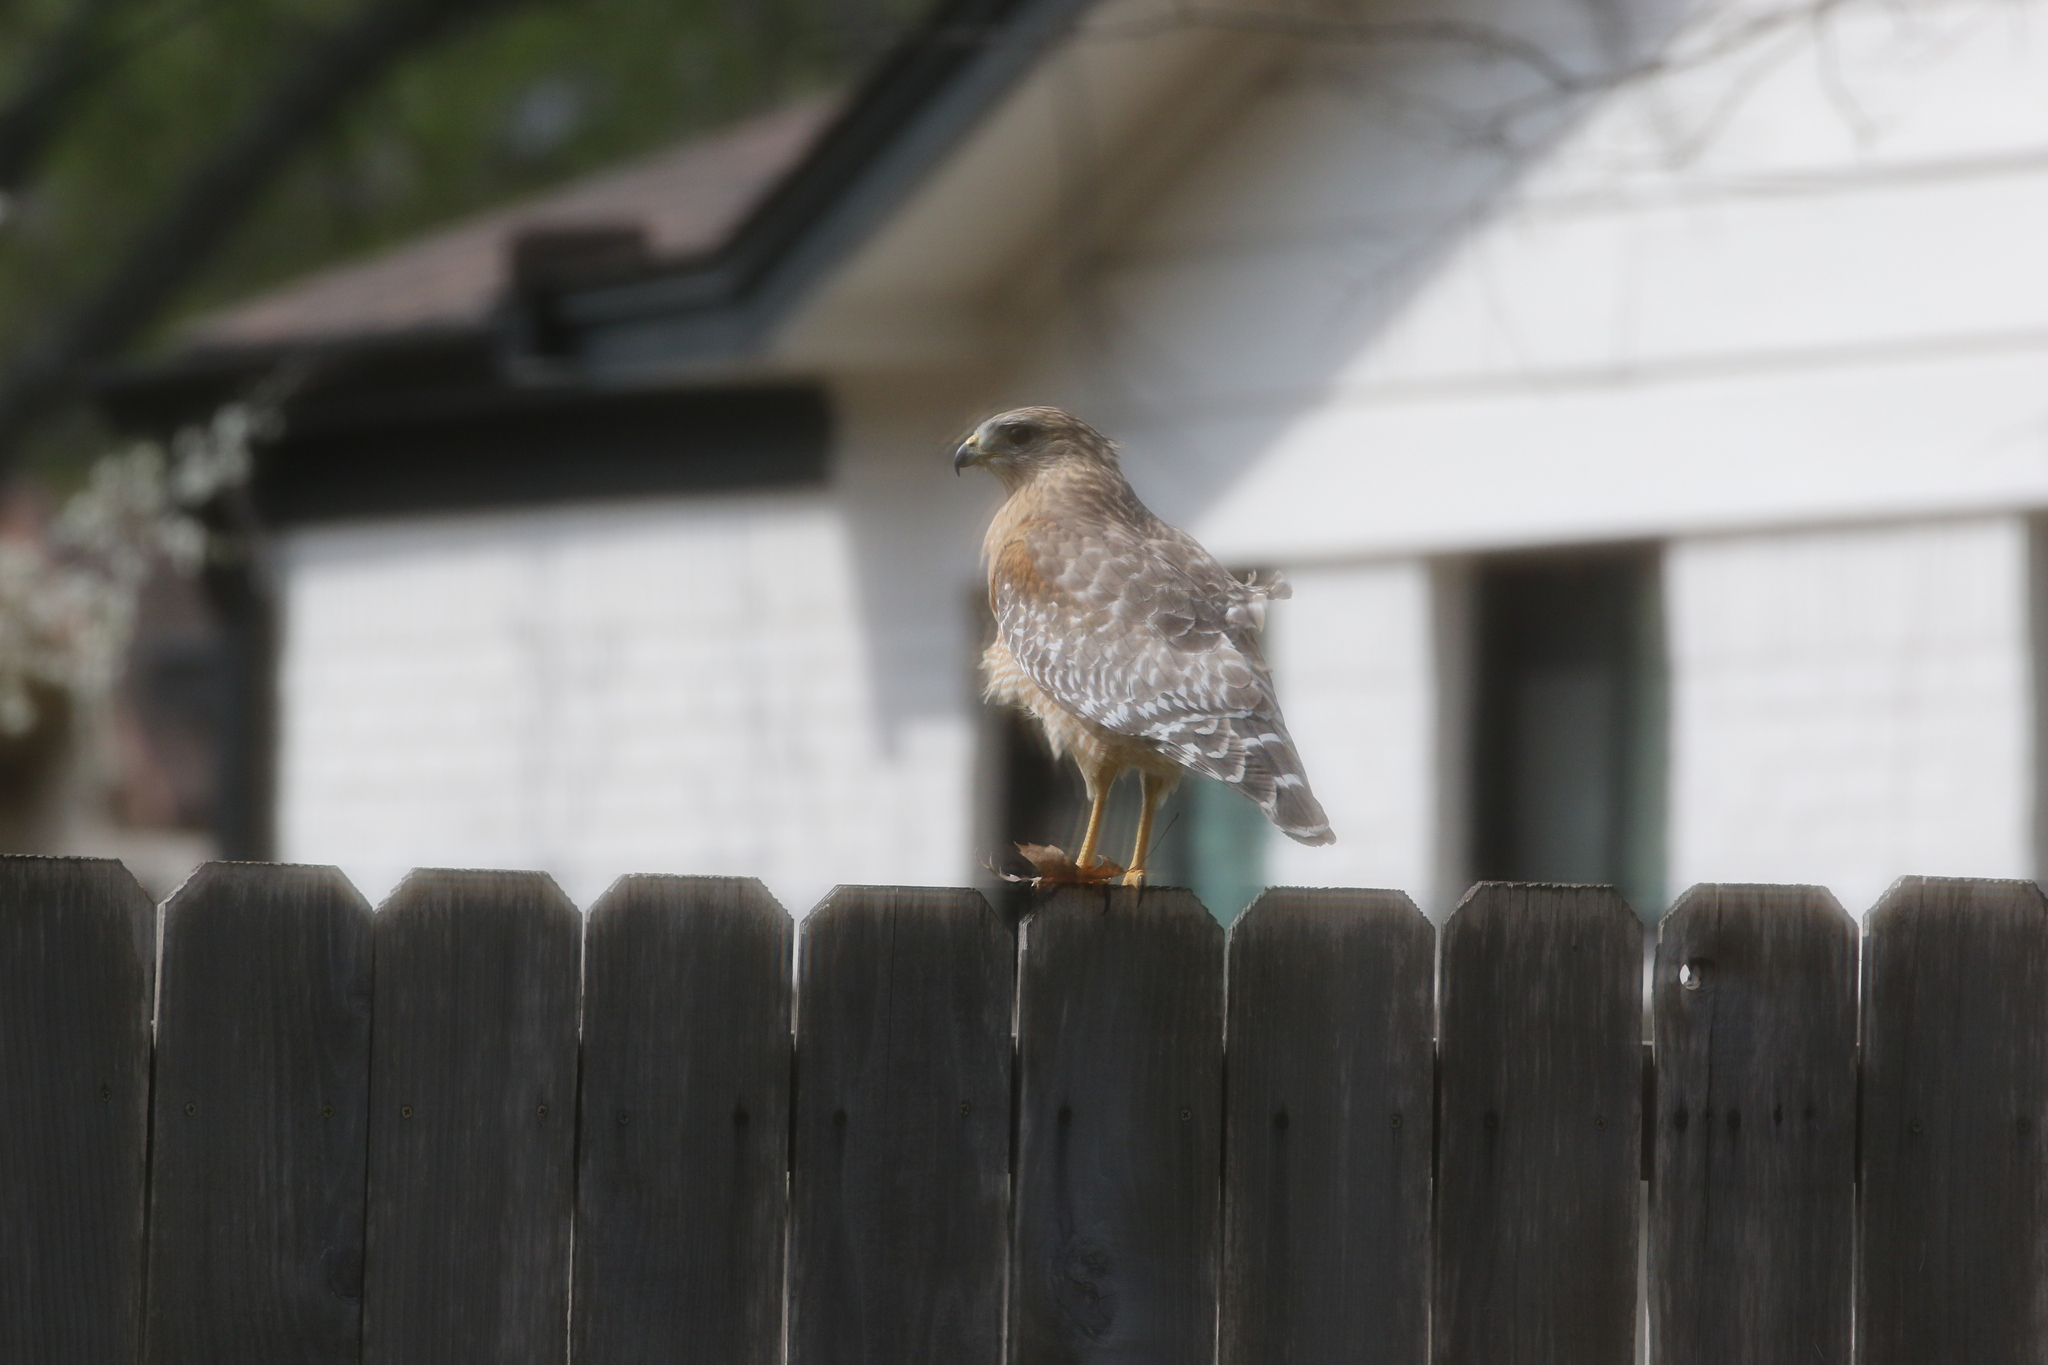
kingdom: Animalia
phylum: Chordata
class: Aves
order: Accipitriformes
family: Accipitridae
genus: Buteo
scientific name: Buteo lineatus
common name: Red-shouldered hawk
